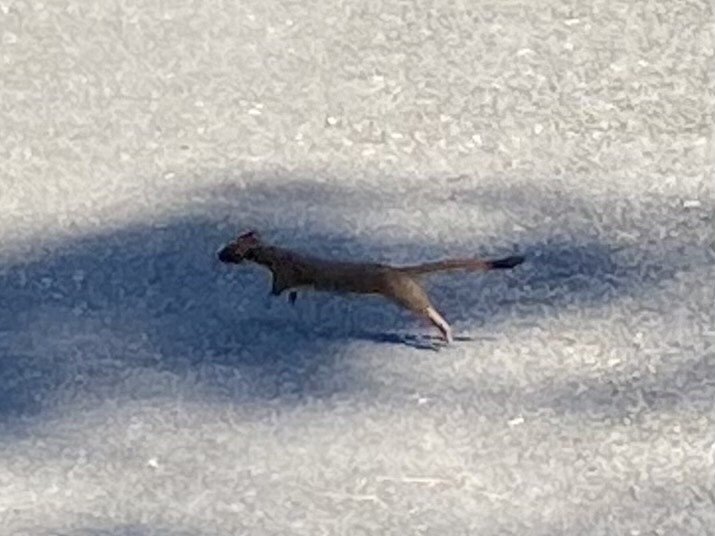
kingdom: Animalia
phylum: Chordata
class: Mammalia
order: Carnivora
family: Mustelidae
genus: Mustela
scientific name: Mustela
